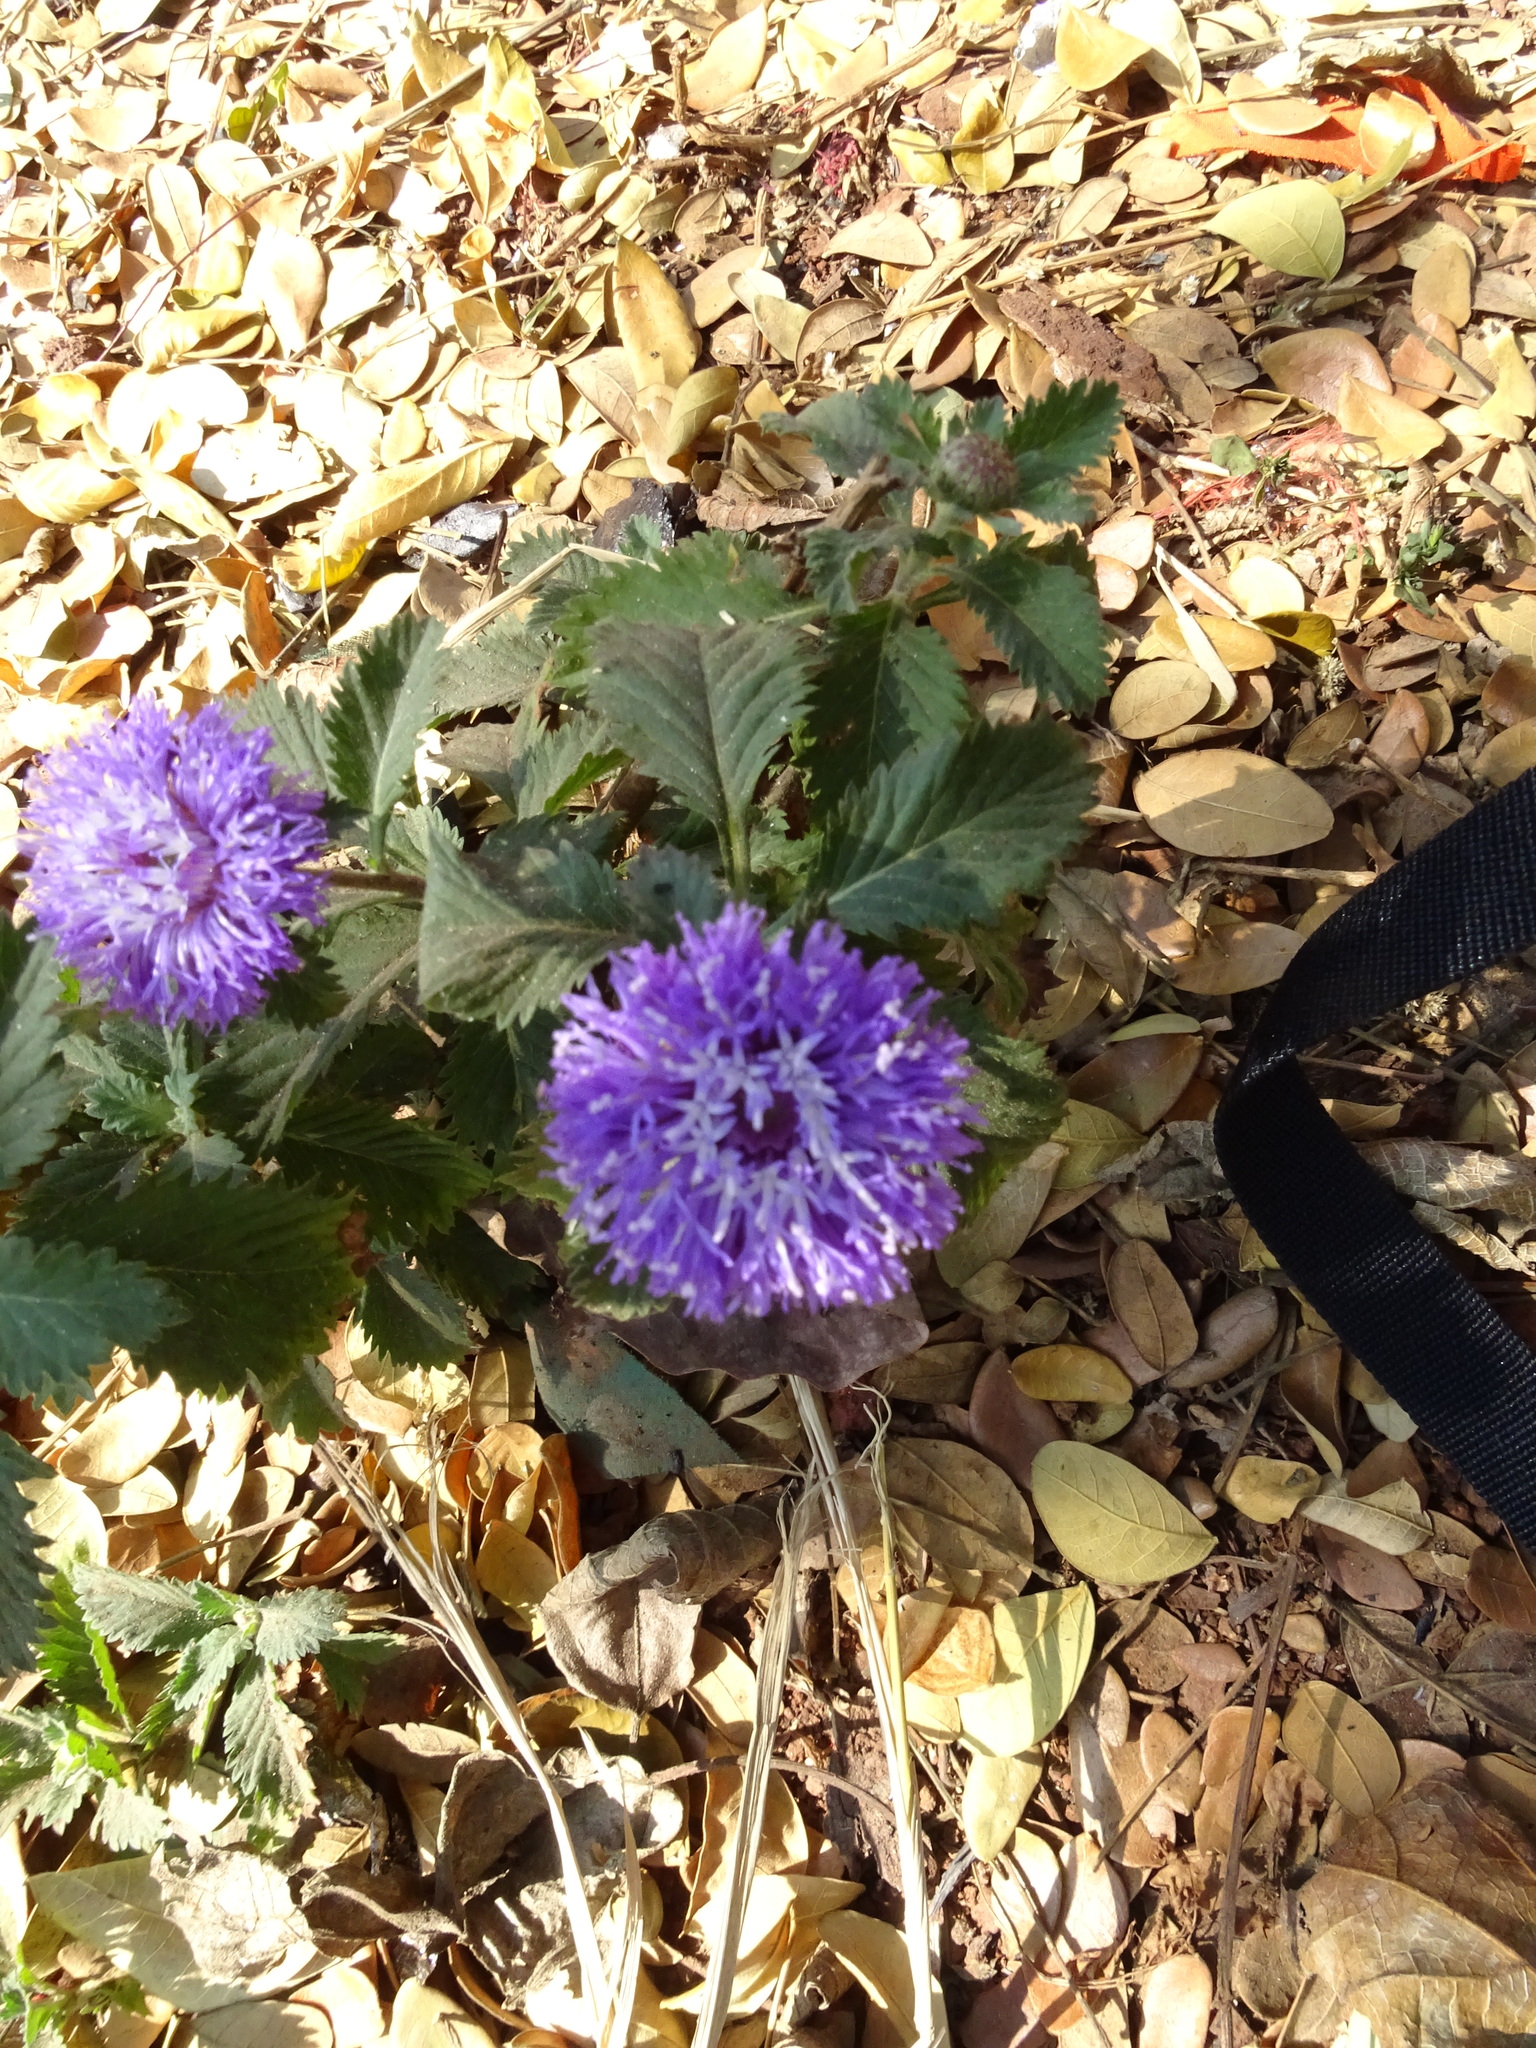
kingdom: Plantae
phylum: Tracheophyta
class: Magnoliopsida
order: Asterales
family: Asteraceae
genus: Centratherum
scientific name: Centratherum punctatum
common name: Larkdaisy
